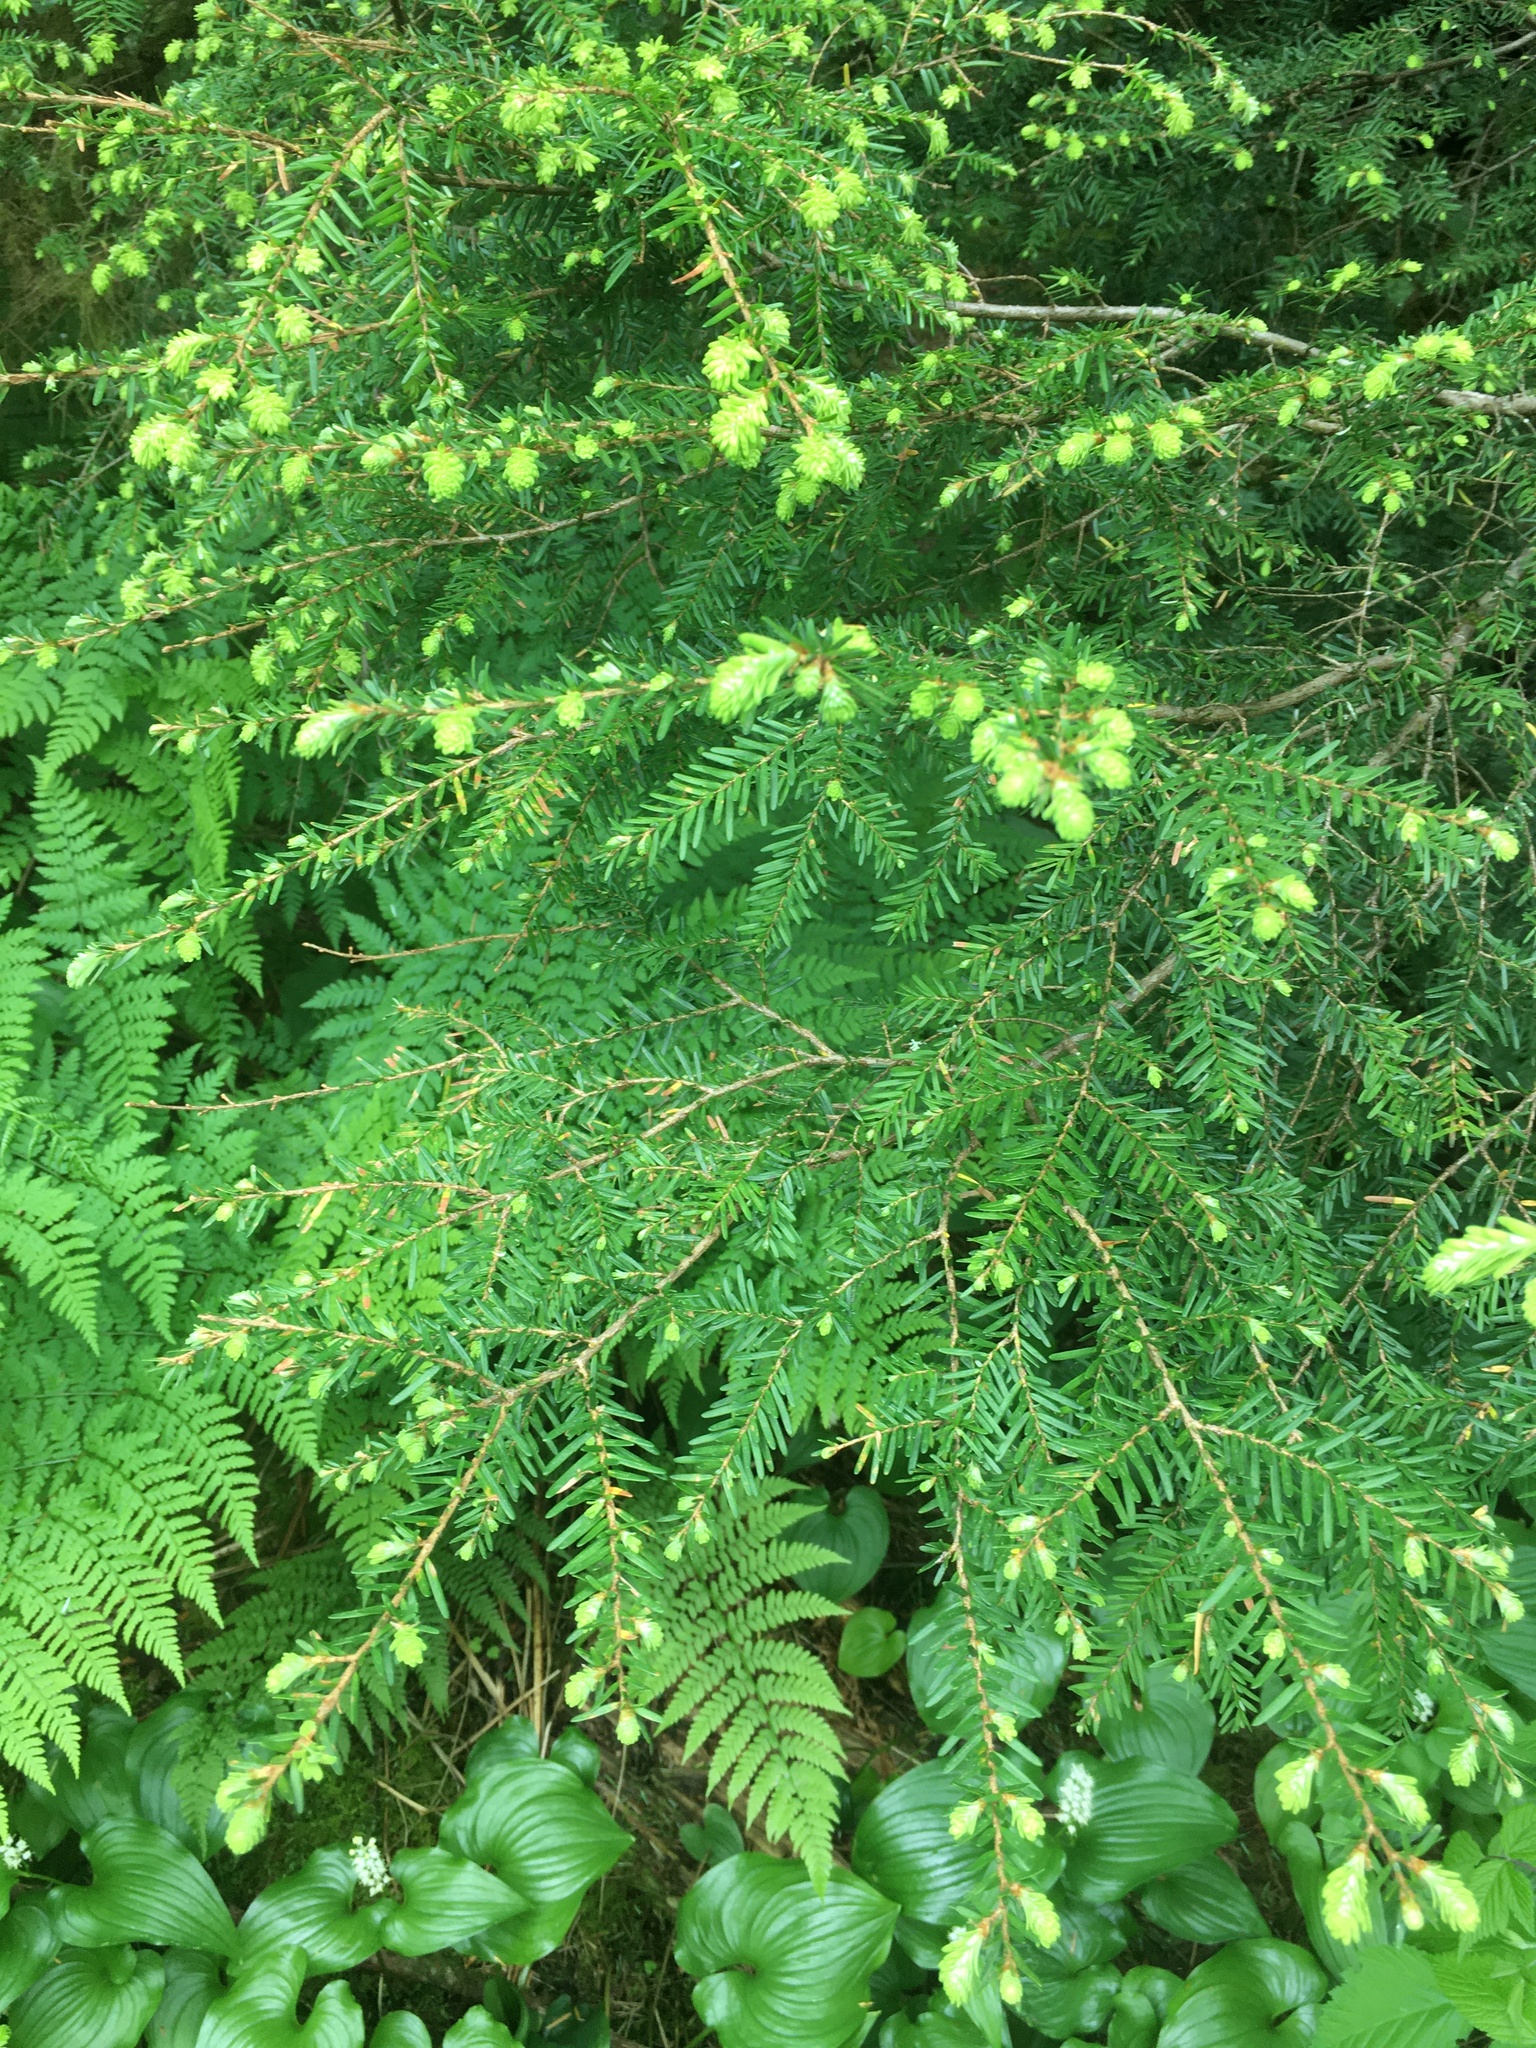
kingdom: Plantae
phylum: Tracheophyta
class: Pinopsida
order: Pinales
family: Pinaceae
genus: Tsuga
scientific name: Tsuga heterophylla
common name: Western hemlock
